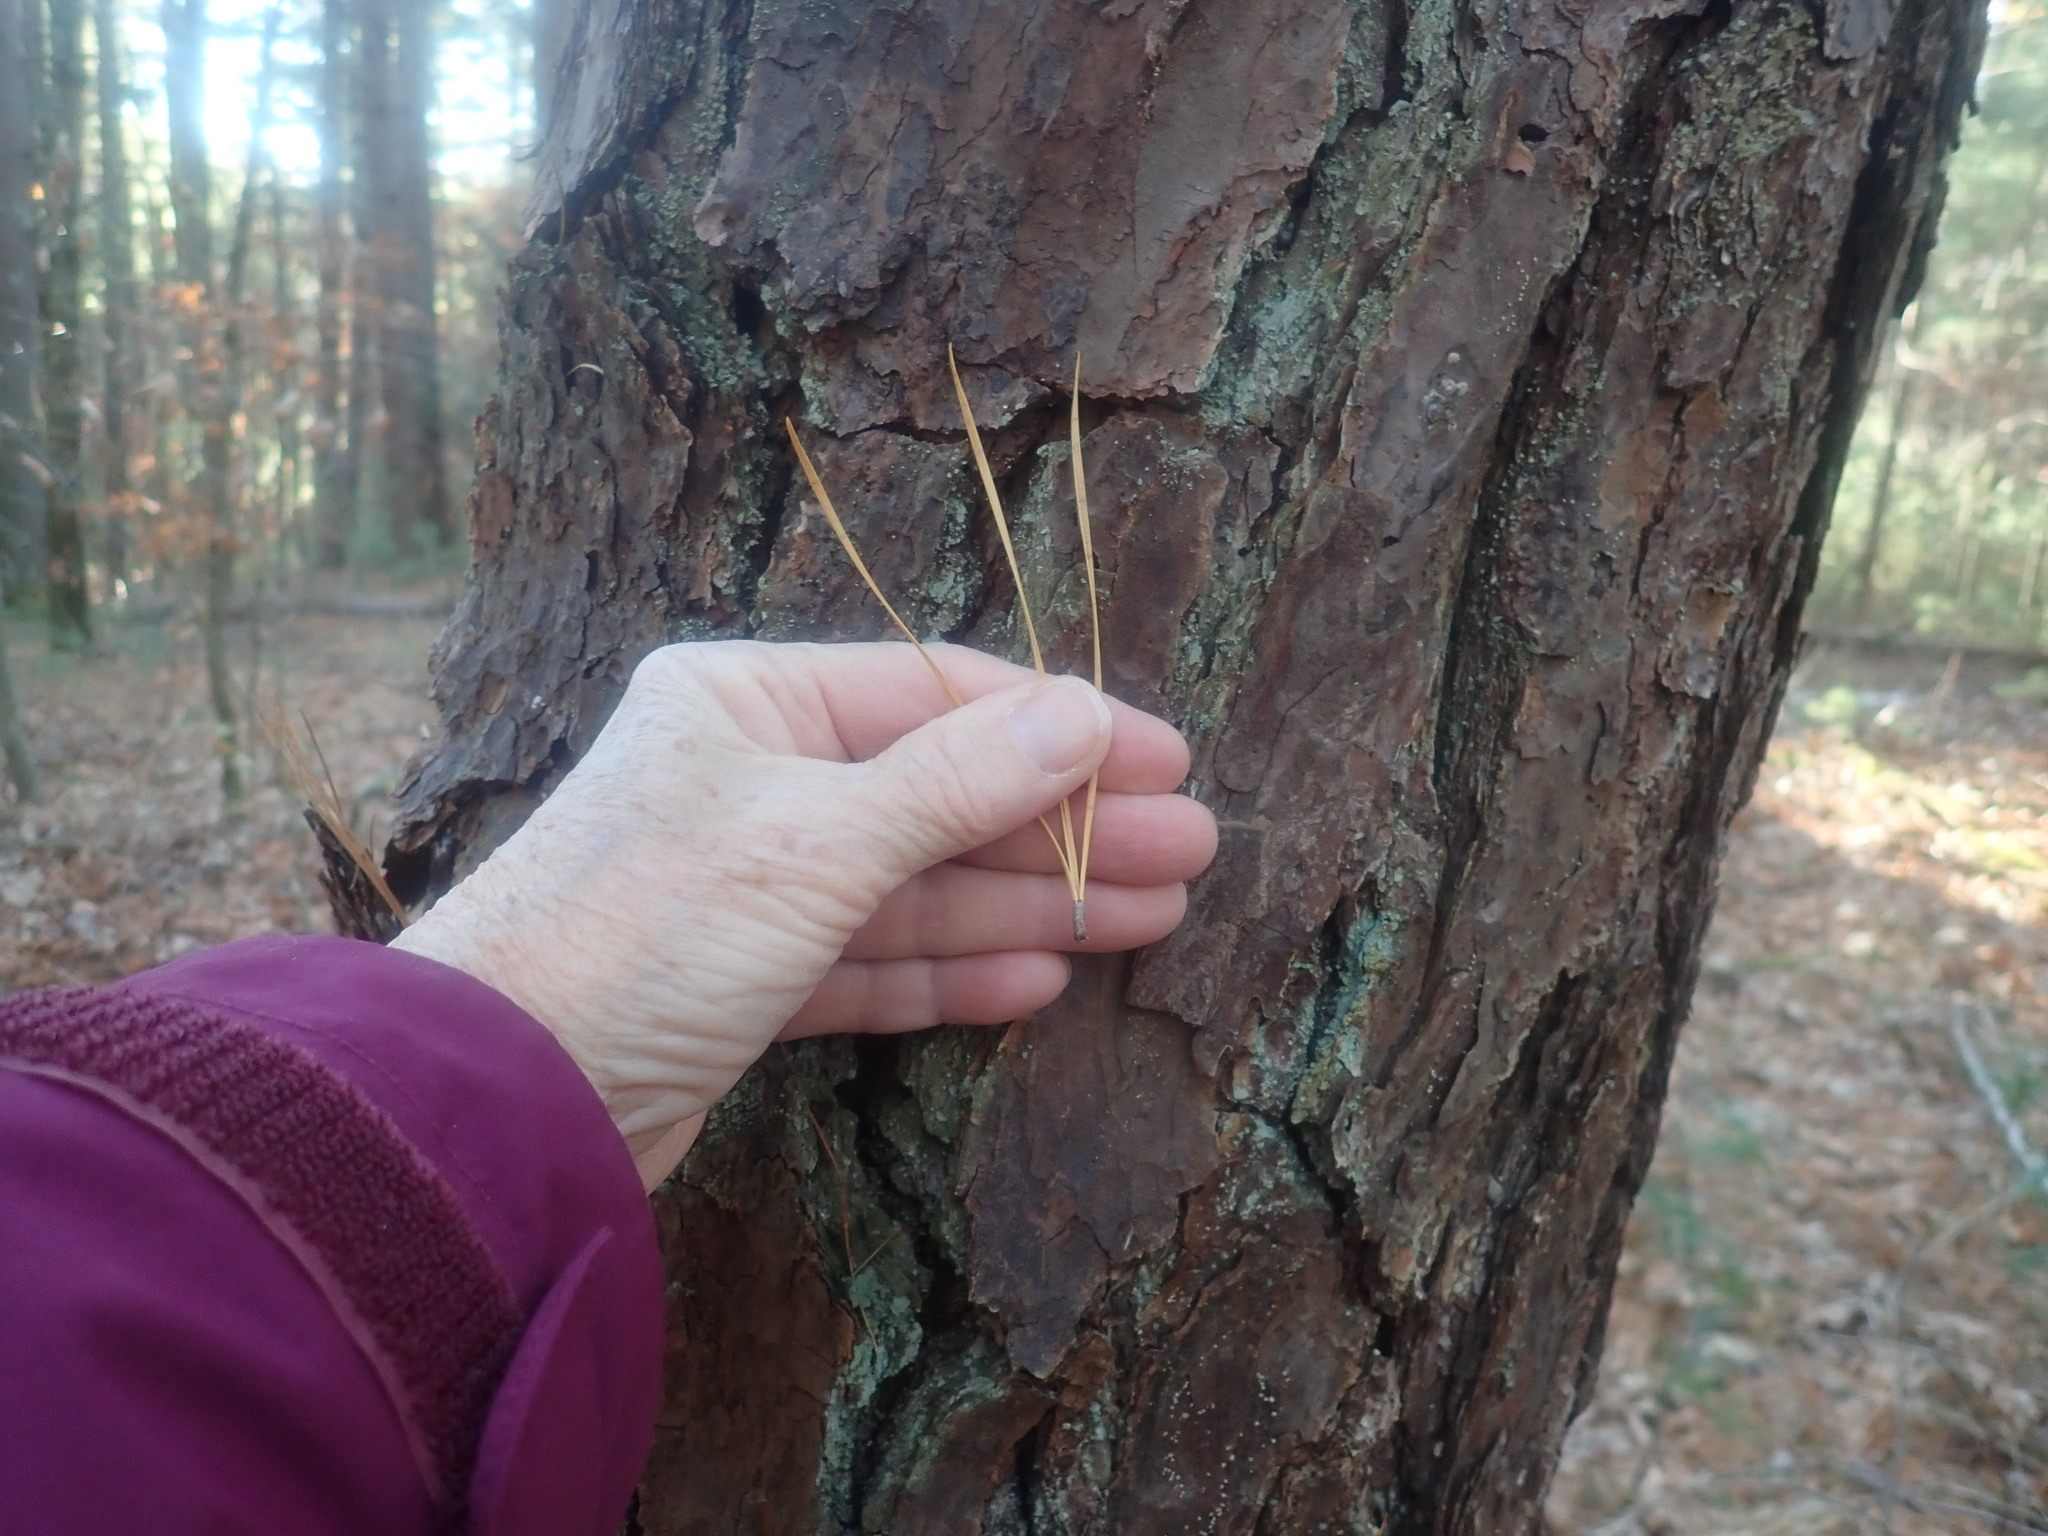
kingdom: Plantae
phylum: Tracheophyta
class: Pinopsida
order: Pinales
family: Pinaceae
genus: Pinus
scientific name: Pinus rigida
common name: Pitch pine
